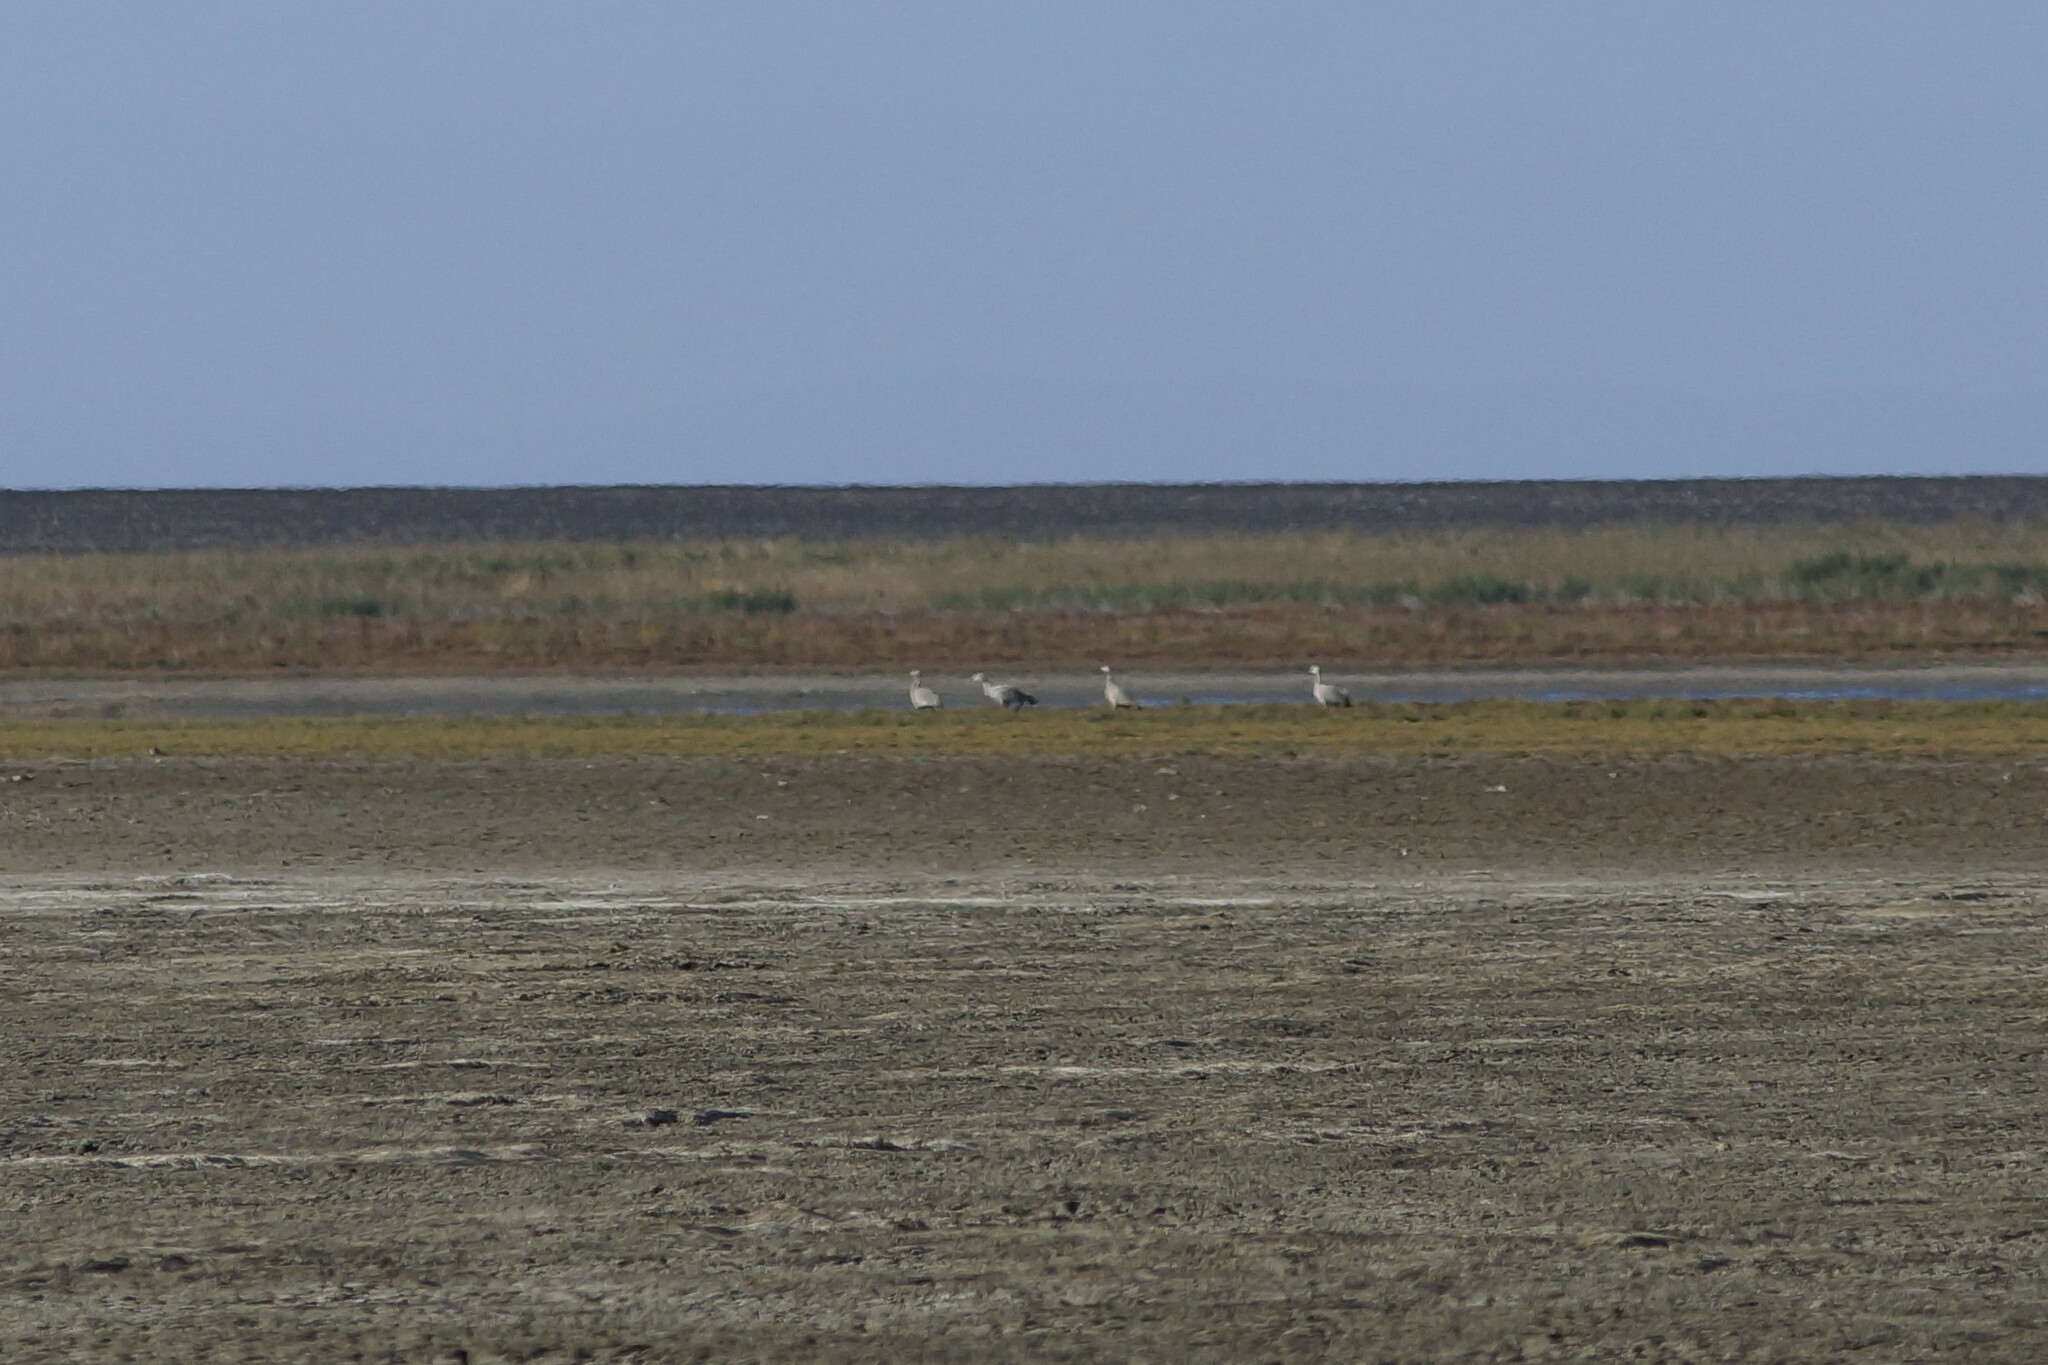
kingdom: Animalia
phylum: Chordata
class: Aves
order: Anseriformes
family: Anatidae
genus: Cereopsis
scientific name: Cereopsis novaehollandiae
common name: Cape barren goose
